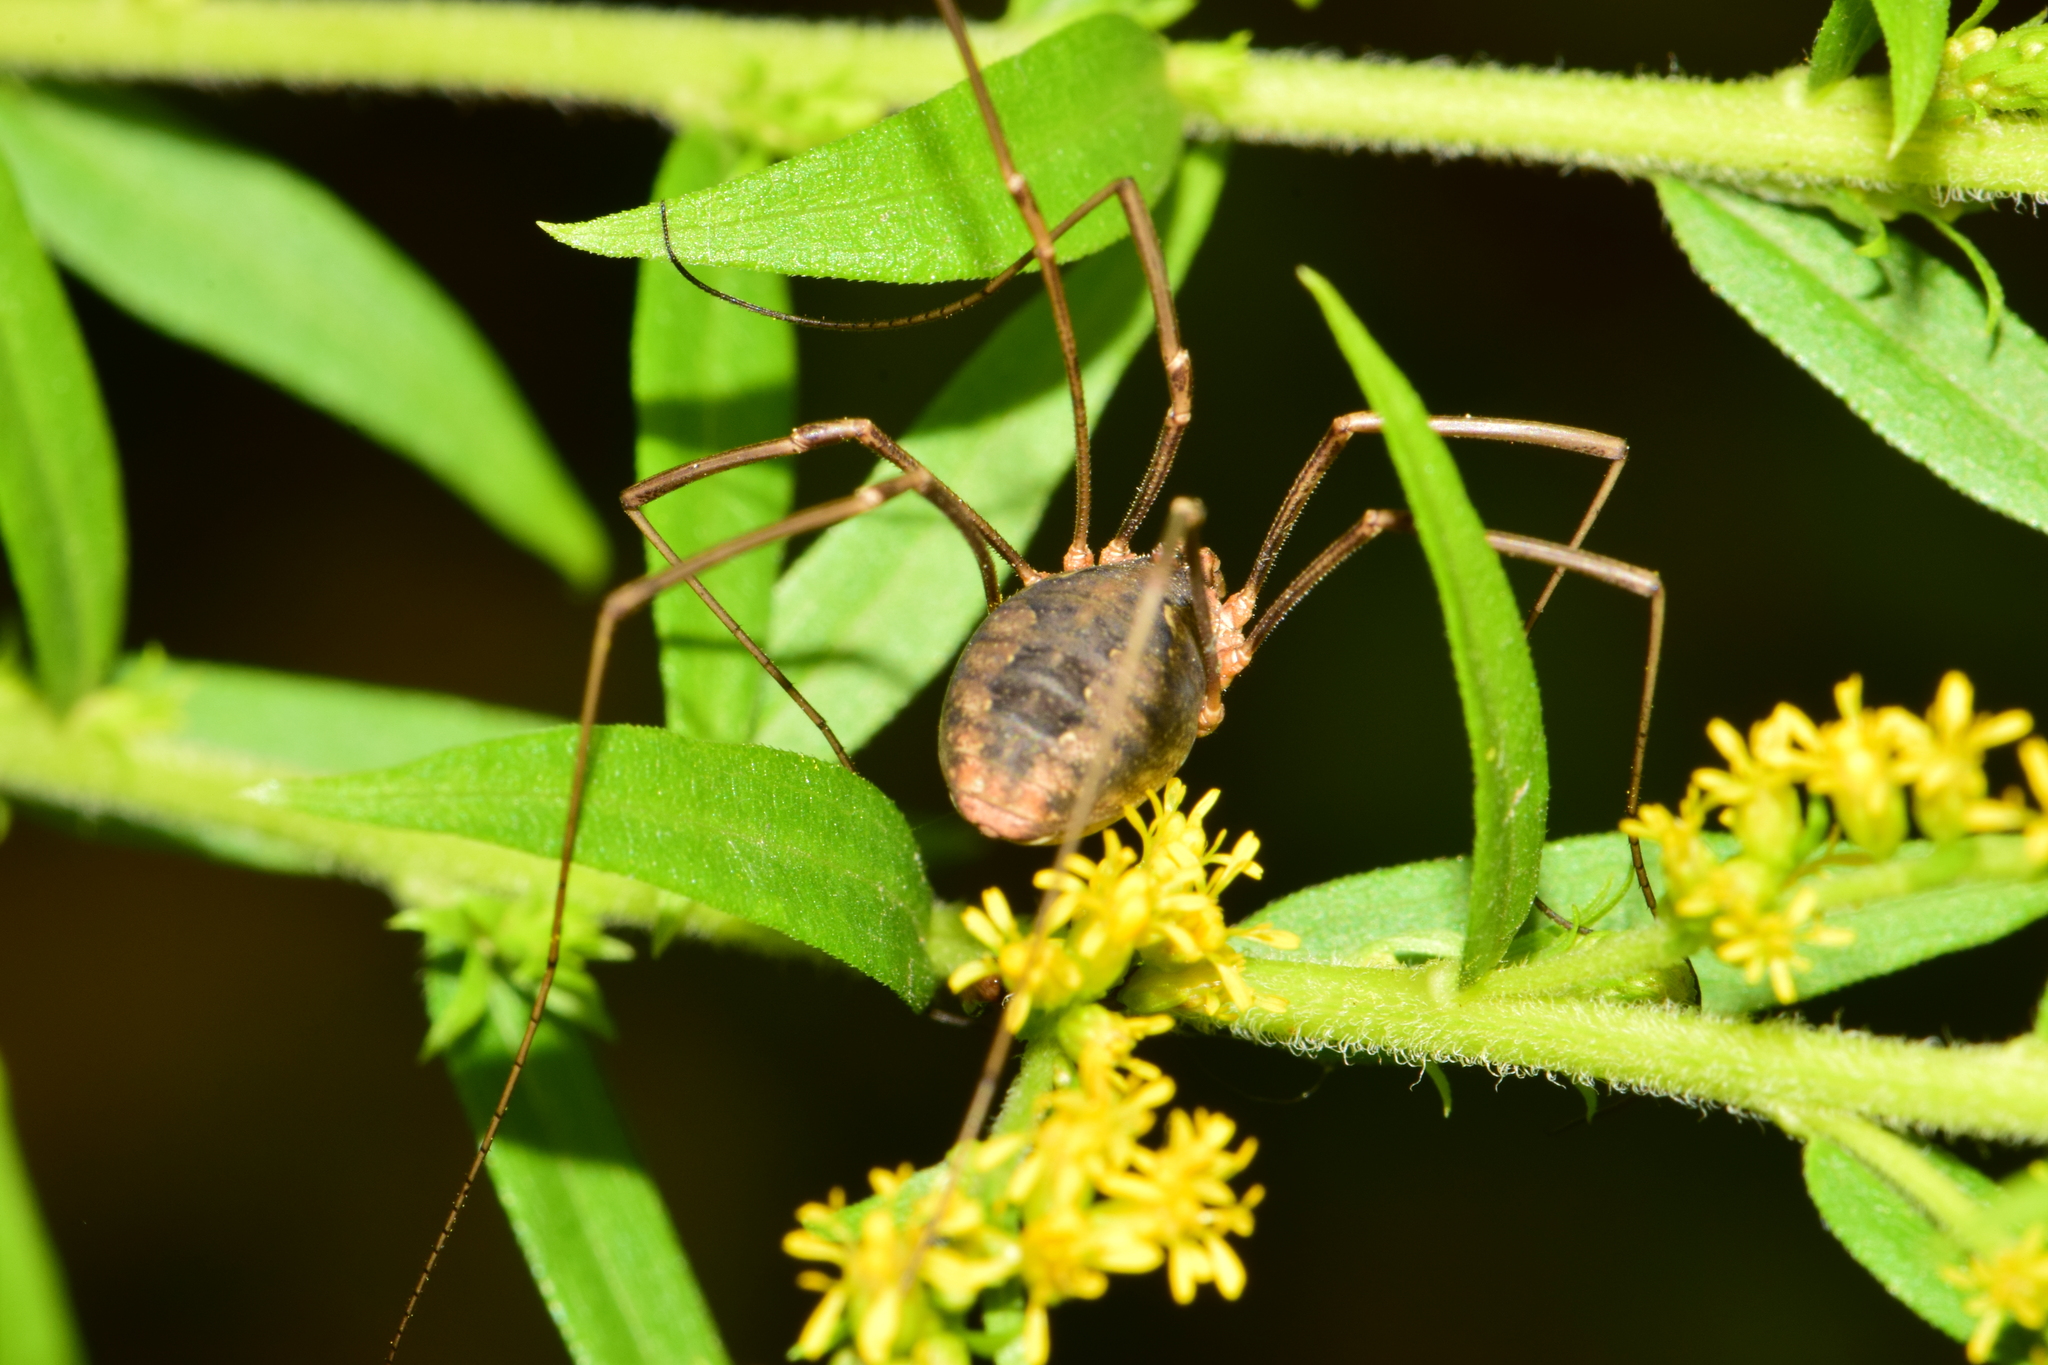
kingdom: Animalia
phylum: Arthropoda
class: Arachnida
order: Opiliones
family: Phalangiidae
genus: Phalangium
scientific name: Phalangium opilio
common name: Daddy longleg
